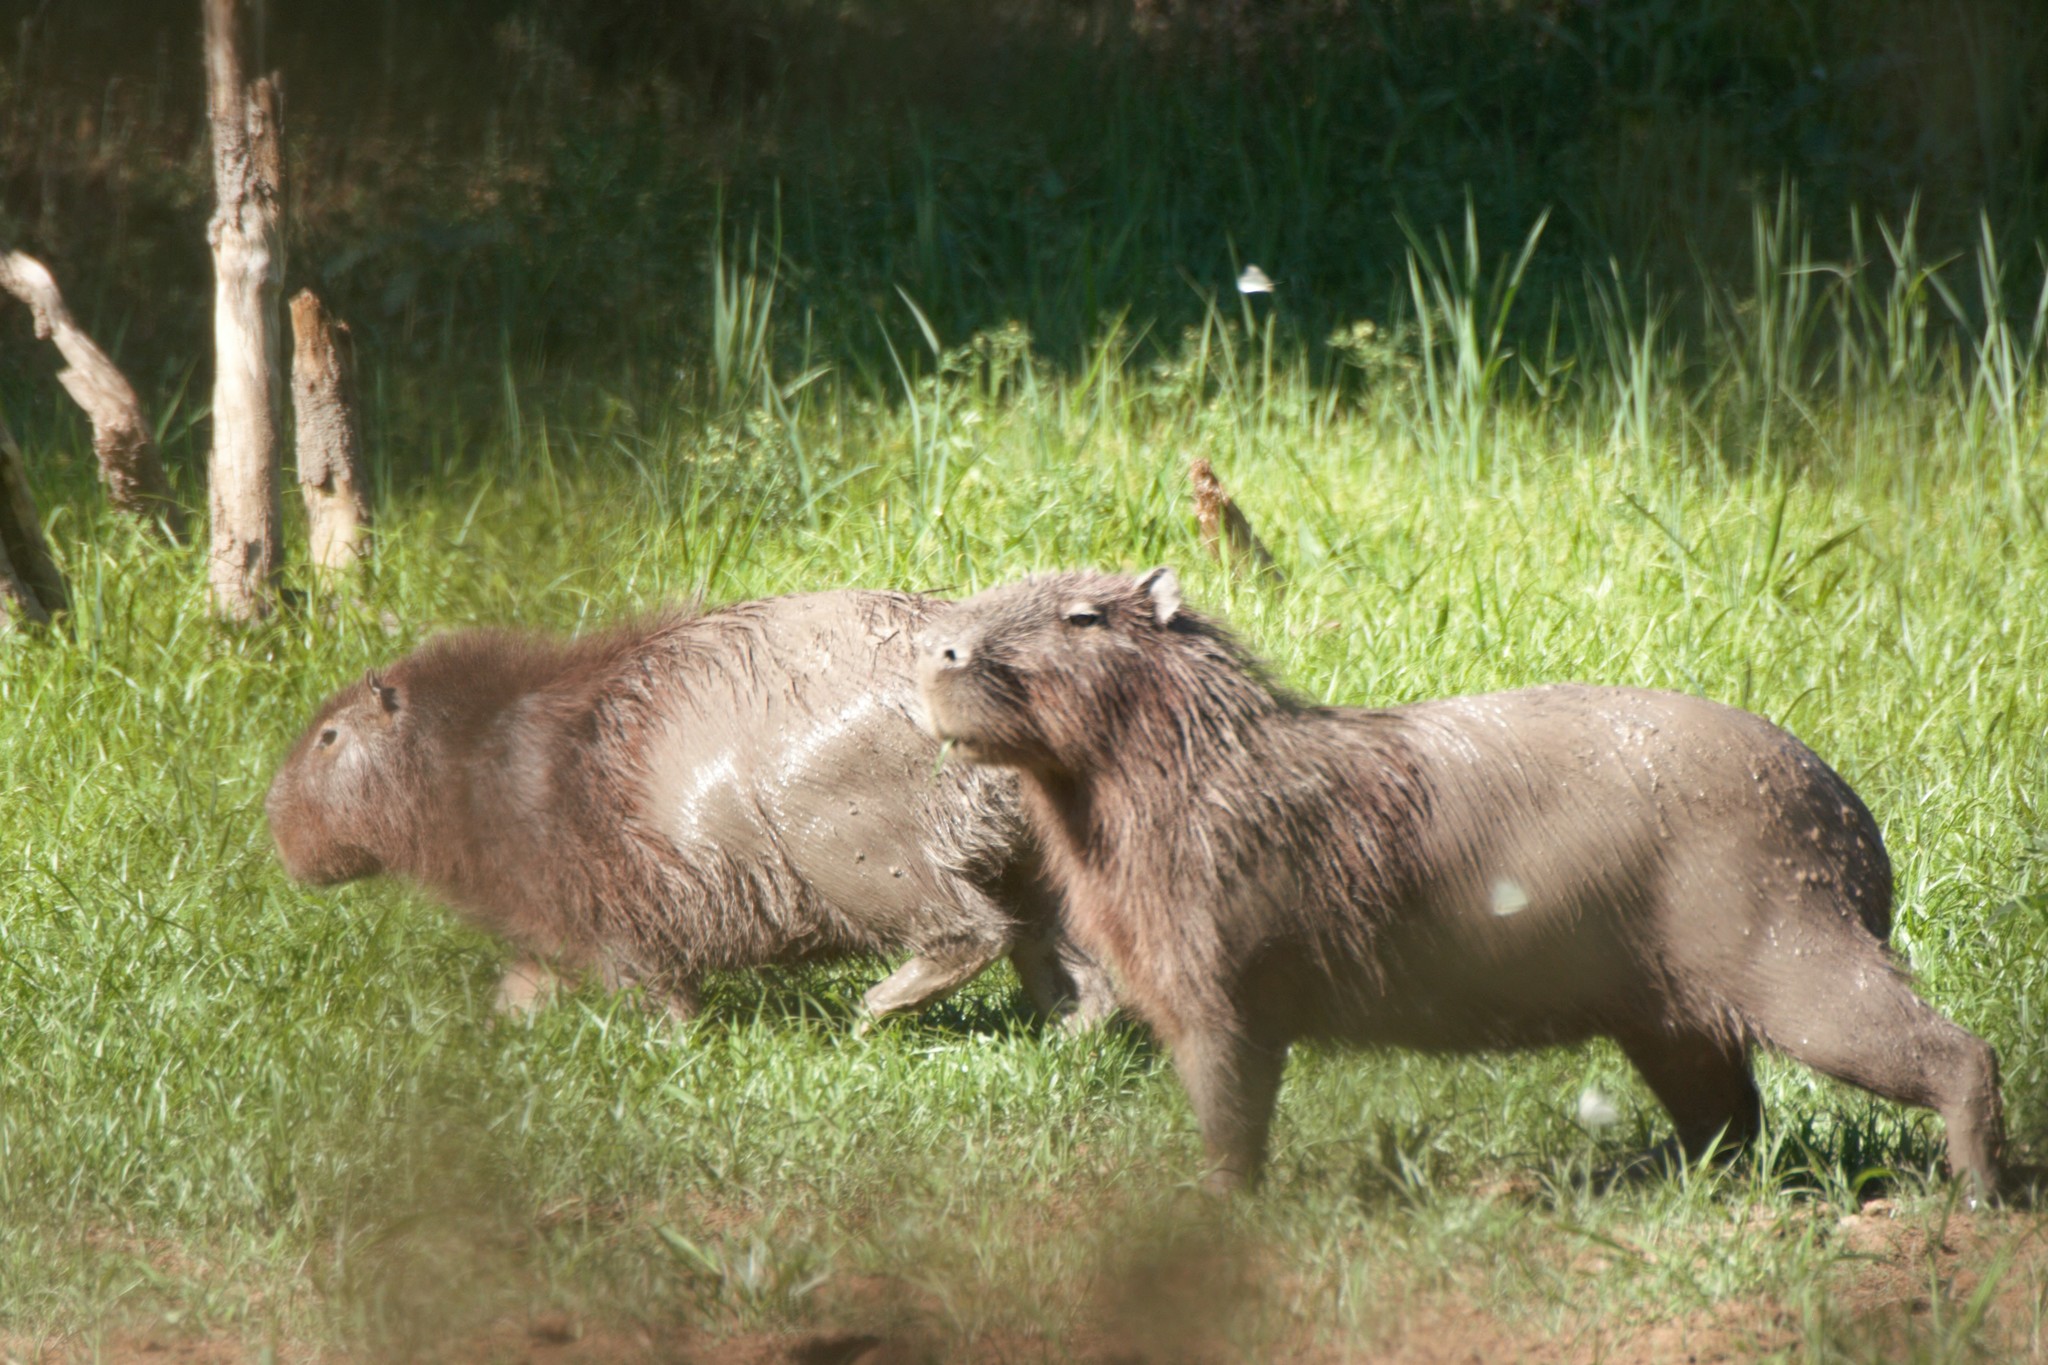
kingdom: Animalia
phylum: Chordata
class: Mammalia
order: Rodentia
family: Caviidae
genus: Hydrochoerus
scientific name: Hydrochoerus hydrochaeris
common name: Capybara
